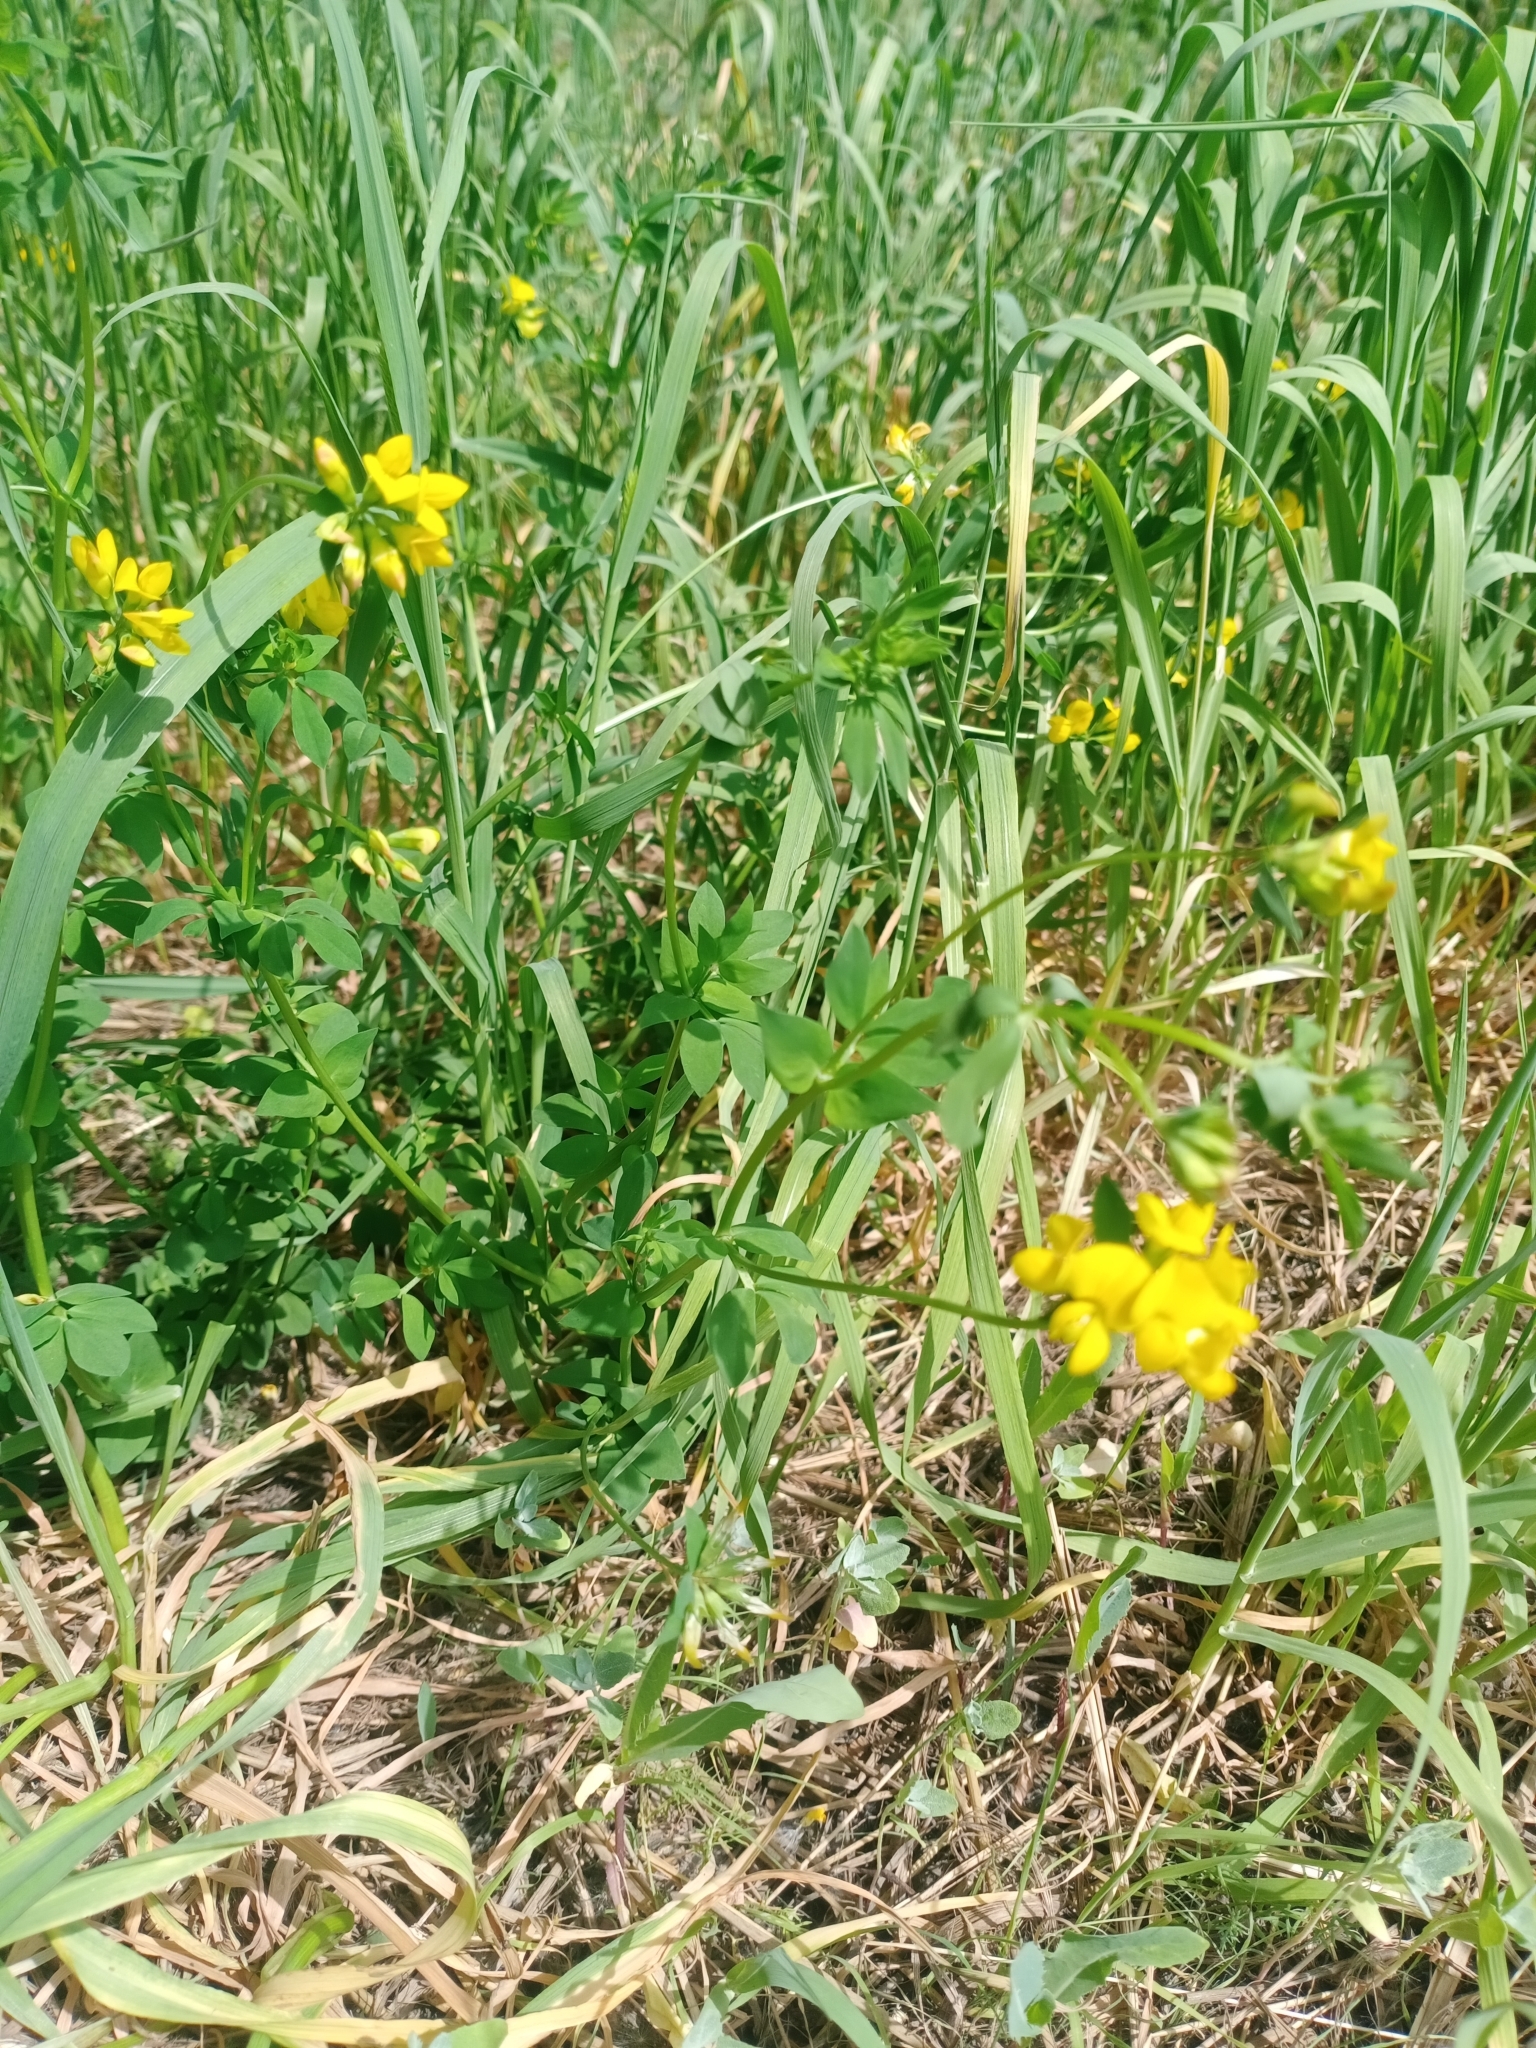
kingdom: Plantae
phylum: Tracheophyta
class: Magnoliopsida
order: Fabales
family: Fabaceae
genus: Lotus
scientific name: Lotus corniculatus
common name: Common bird's-foot-trefoil
